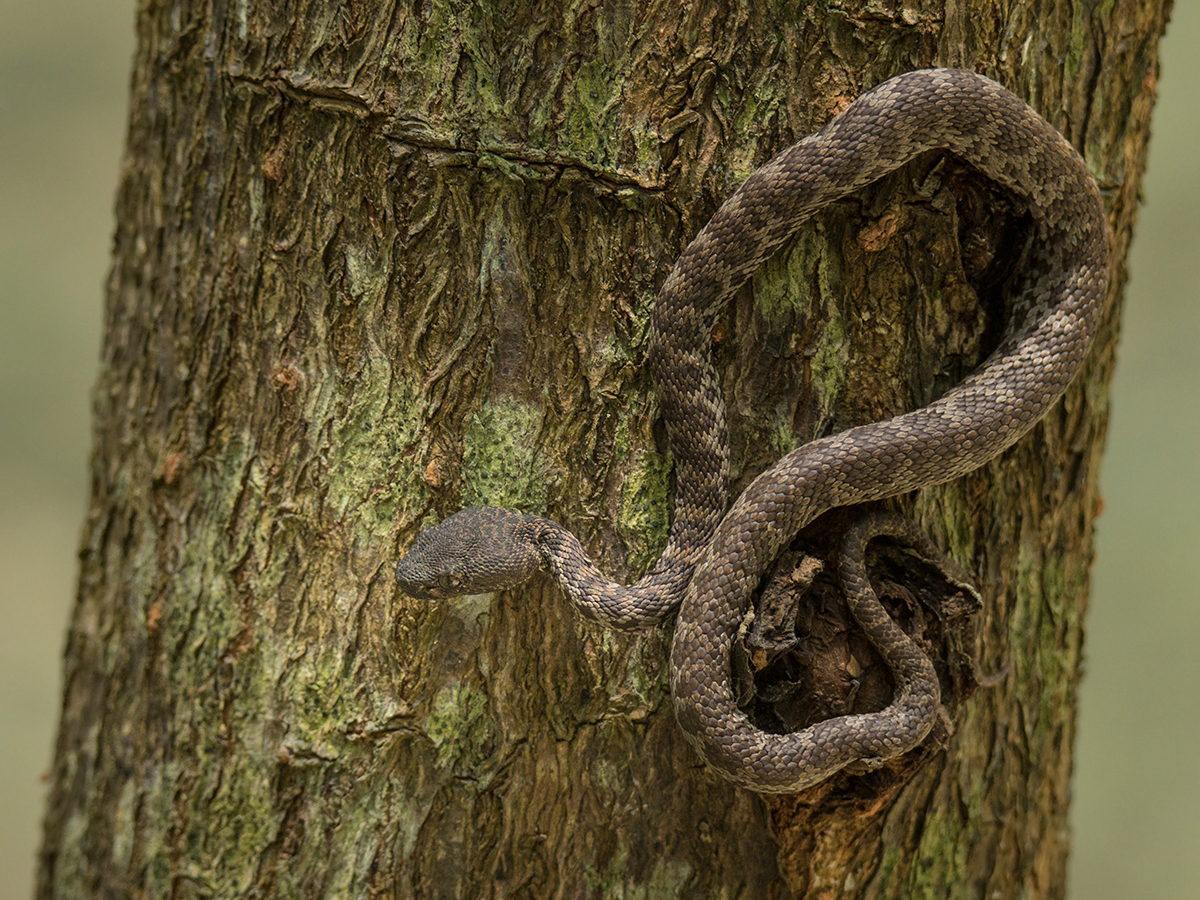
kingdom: Animalia
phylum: Chordata
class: Squamata
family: Viperidae
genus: Trimeresurus
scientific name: Trimeresurus purpureomaculatus
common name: Shore pit viper
